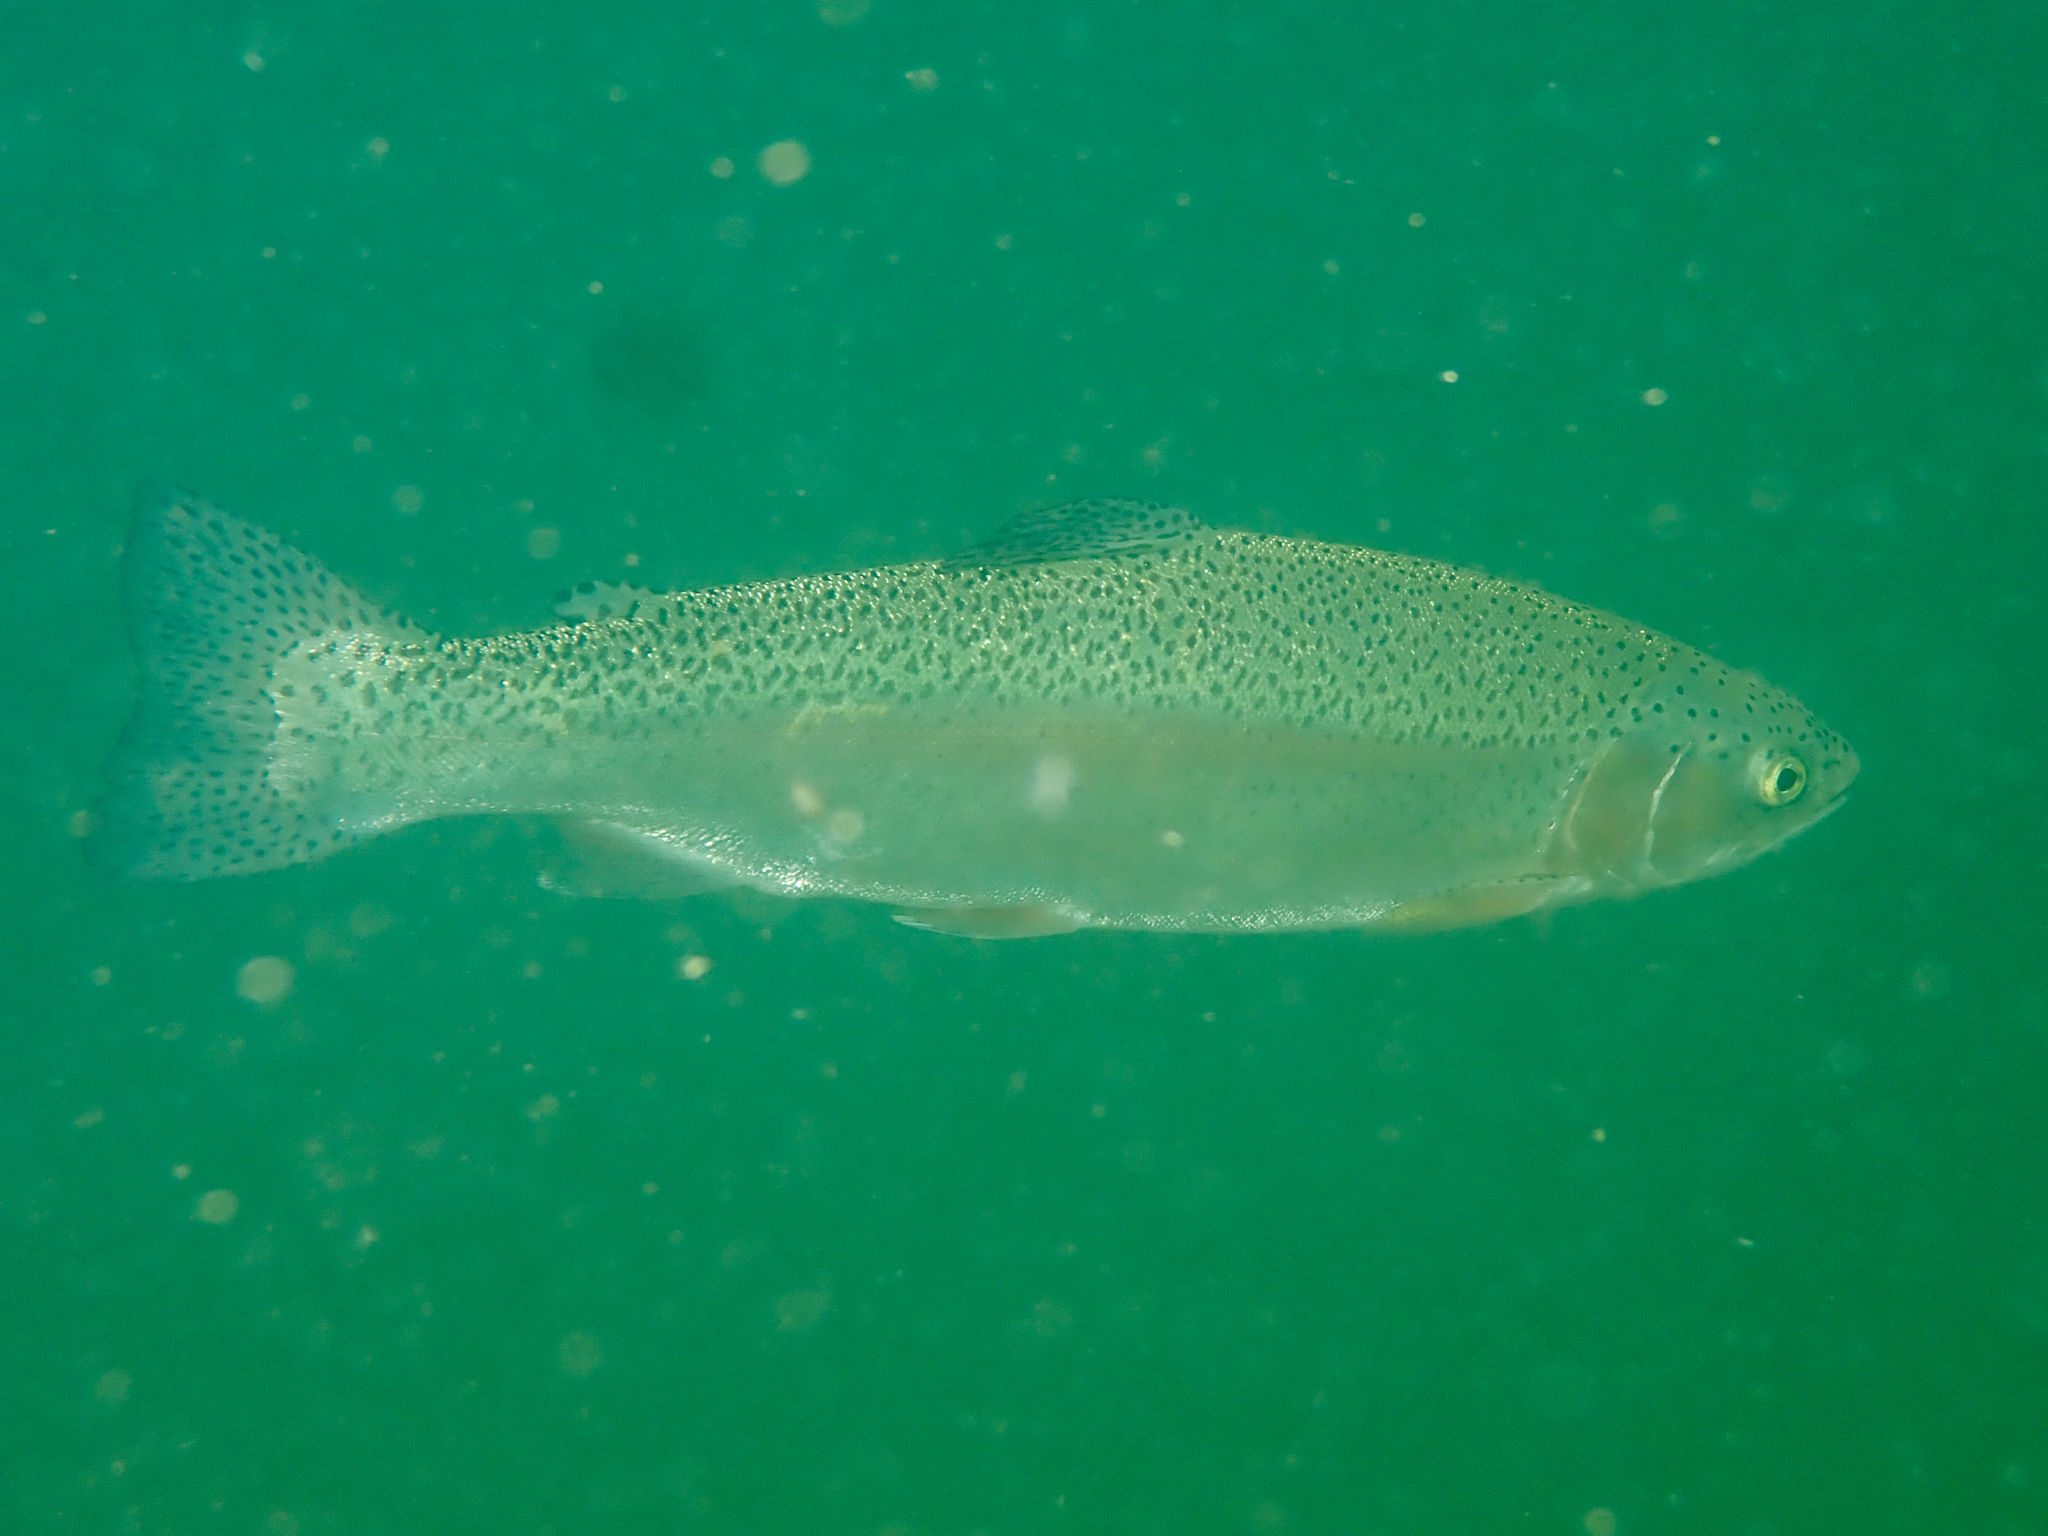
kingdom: Animalia
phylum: Chordata
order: Salmoniformes
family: Salmonidae
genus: Oncorhynchus
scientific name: Oncorhynchus mykiss
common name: Rainbow trout
